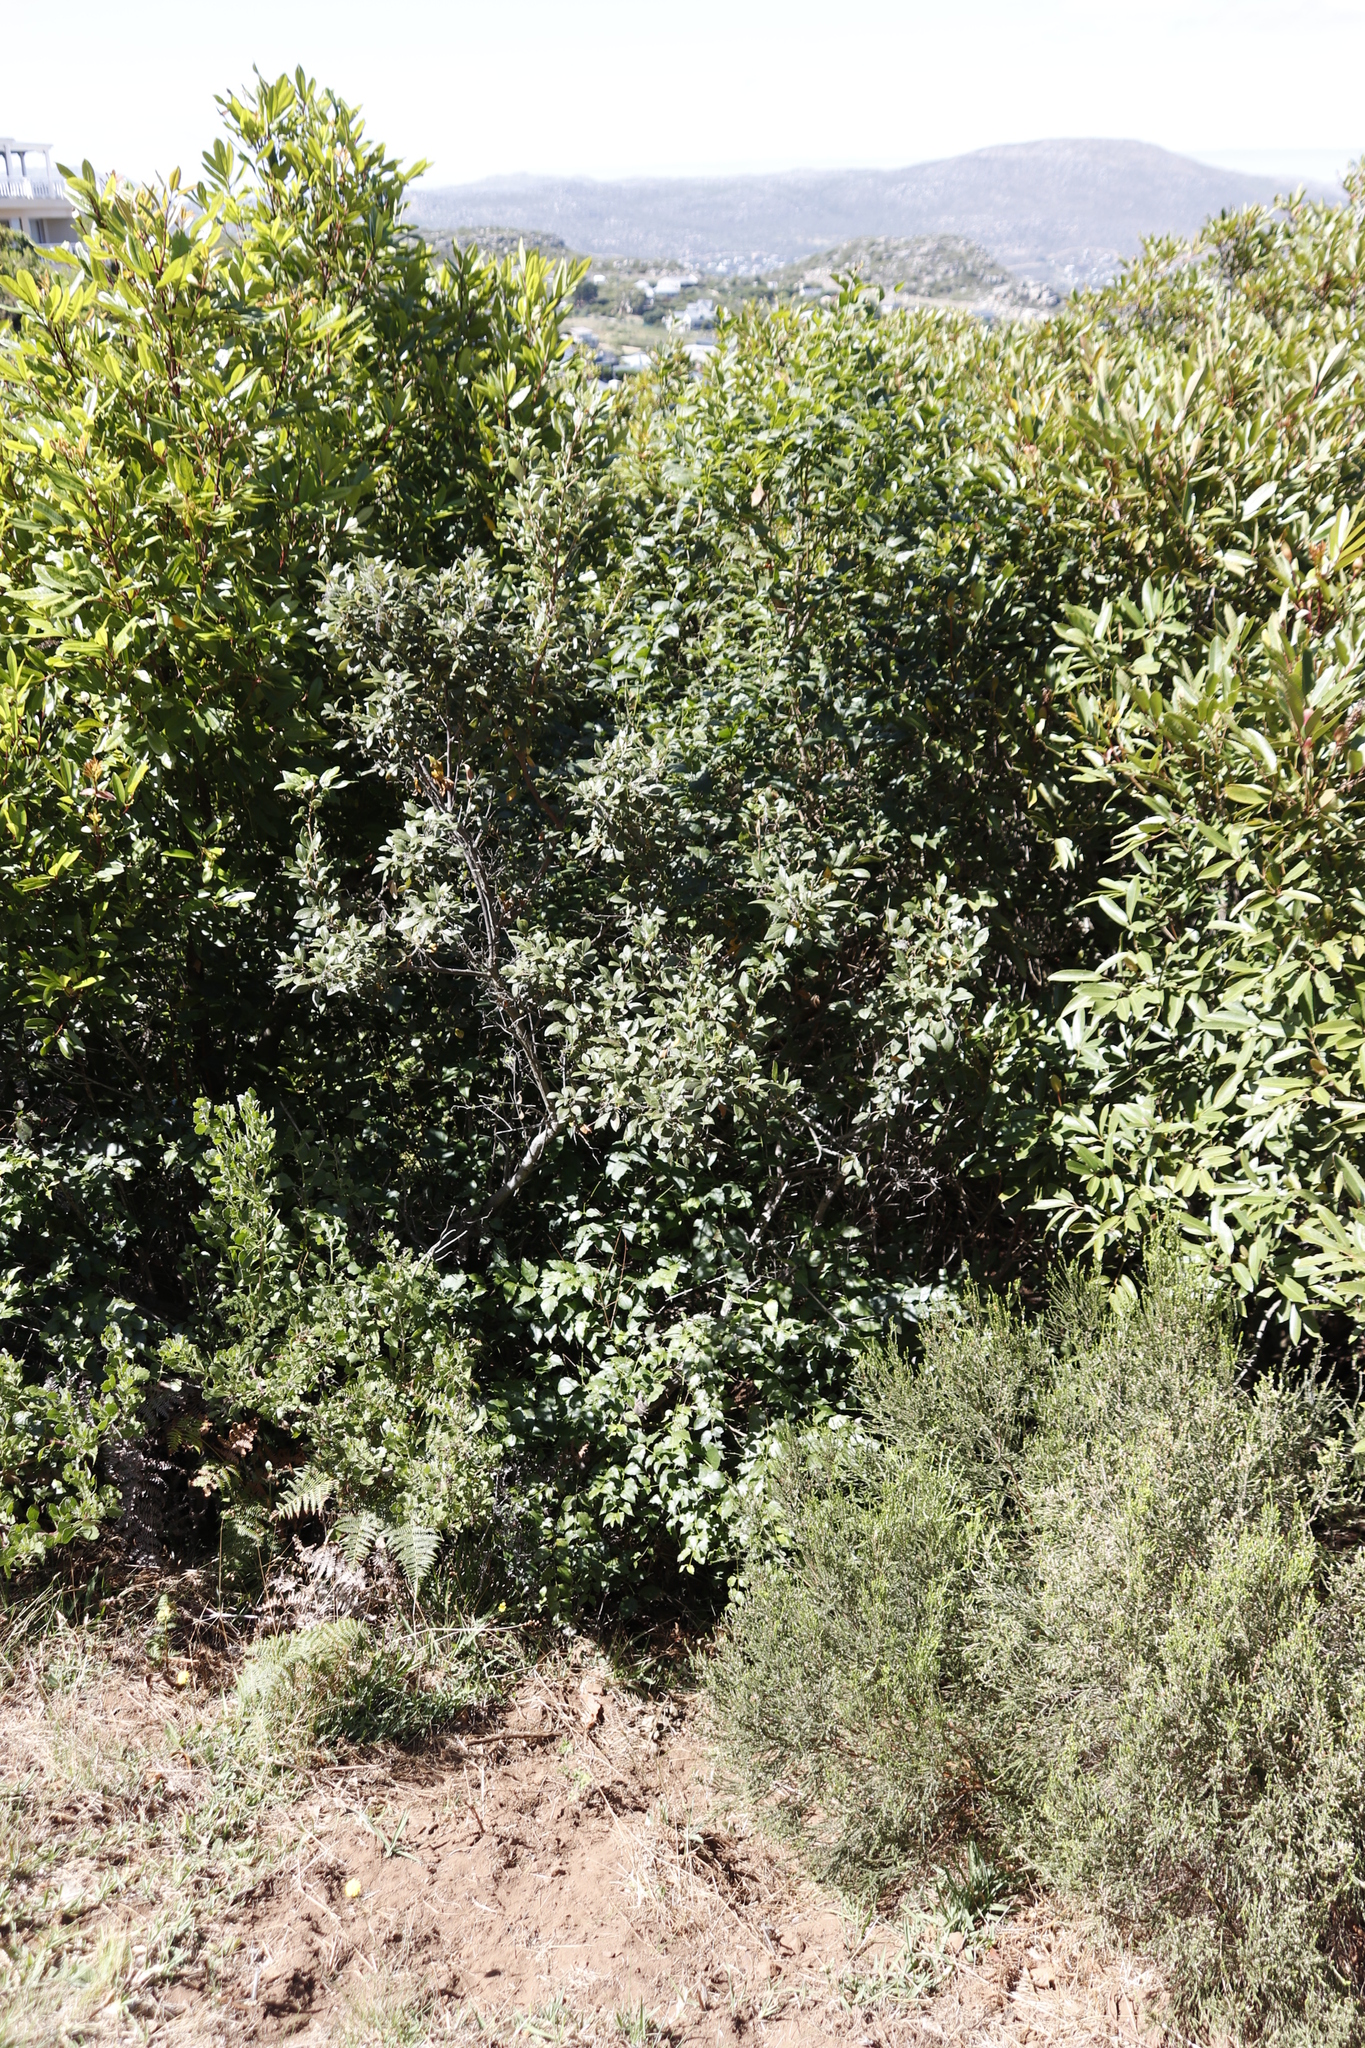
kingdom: Plantae
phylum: Tracheophyta
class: Magnoliopsida
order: Sapindales
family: Anacardiaceae
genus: Searsia
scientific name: Searsia tomentosa
